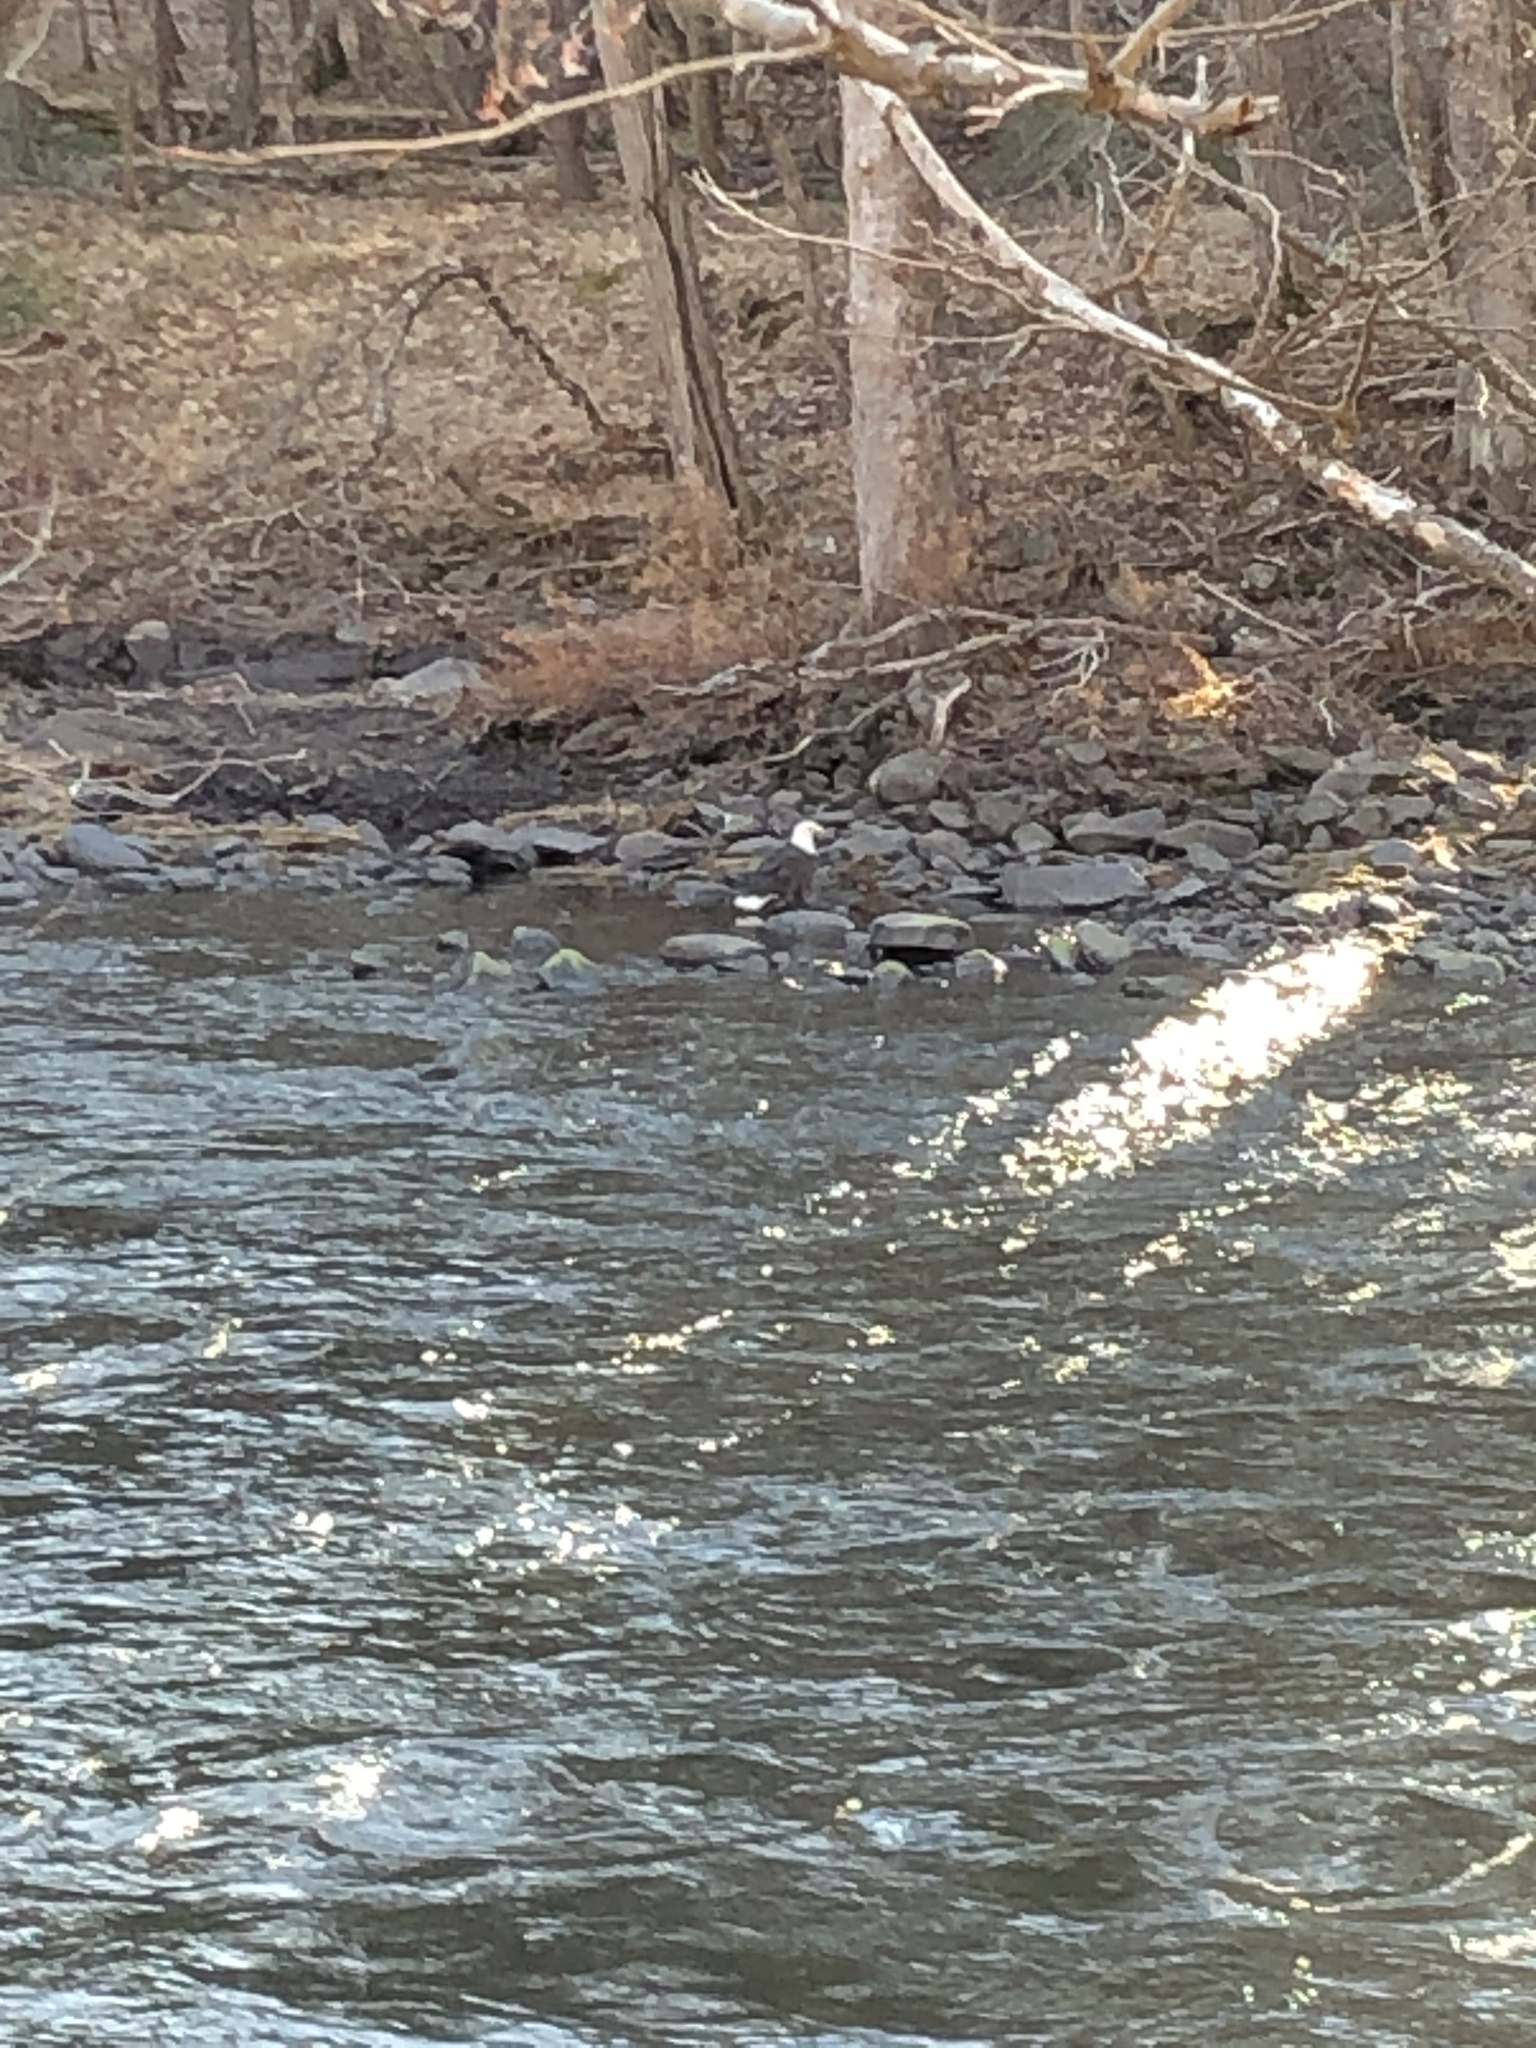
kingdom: Animalia
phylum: Chordata
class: Aves
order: Accipitriformes
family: Accipitridae
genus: Haliaeetus
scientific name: Haliaeetus leucocephalus
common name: Bald eagle
